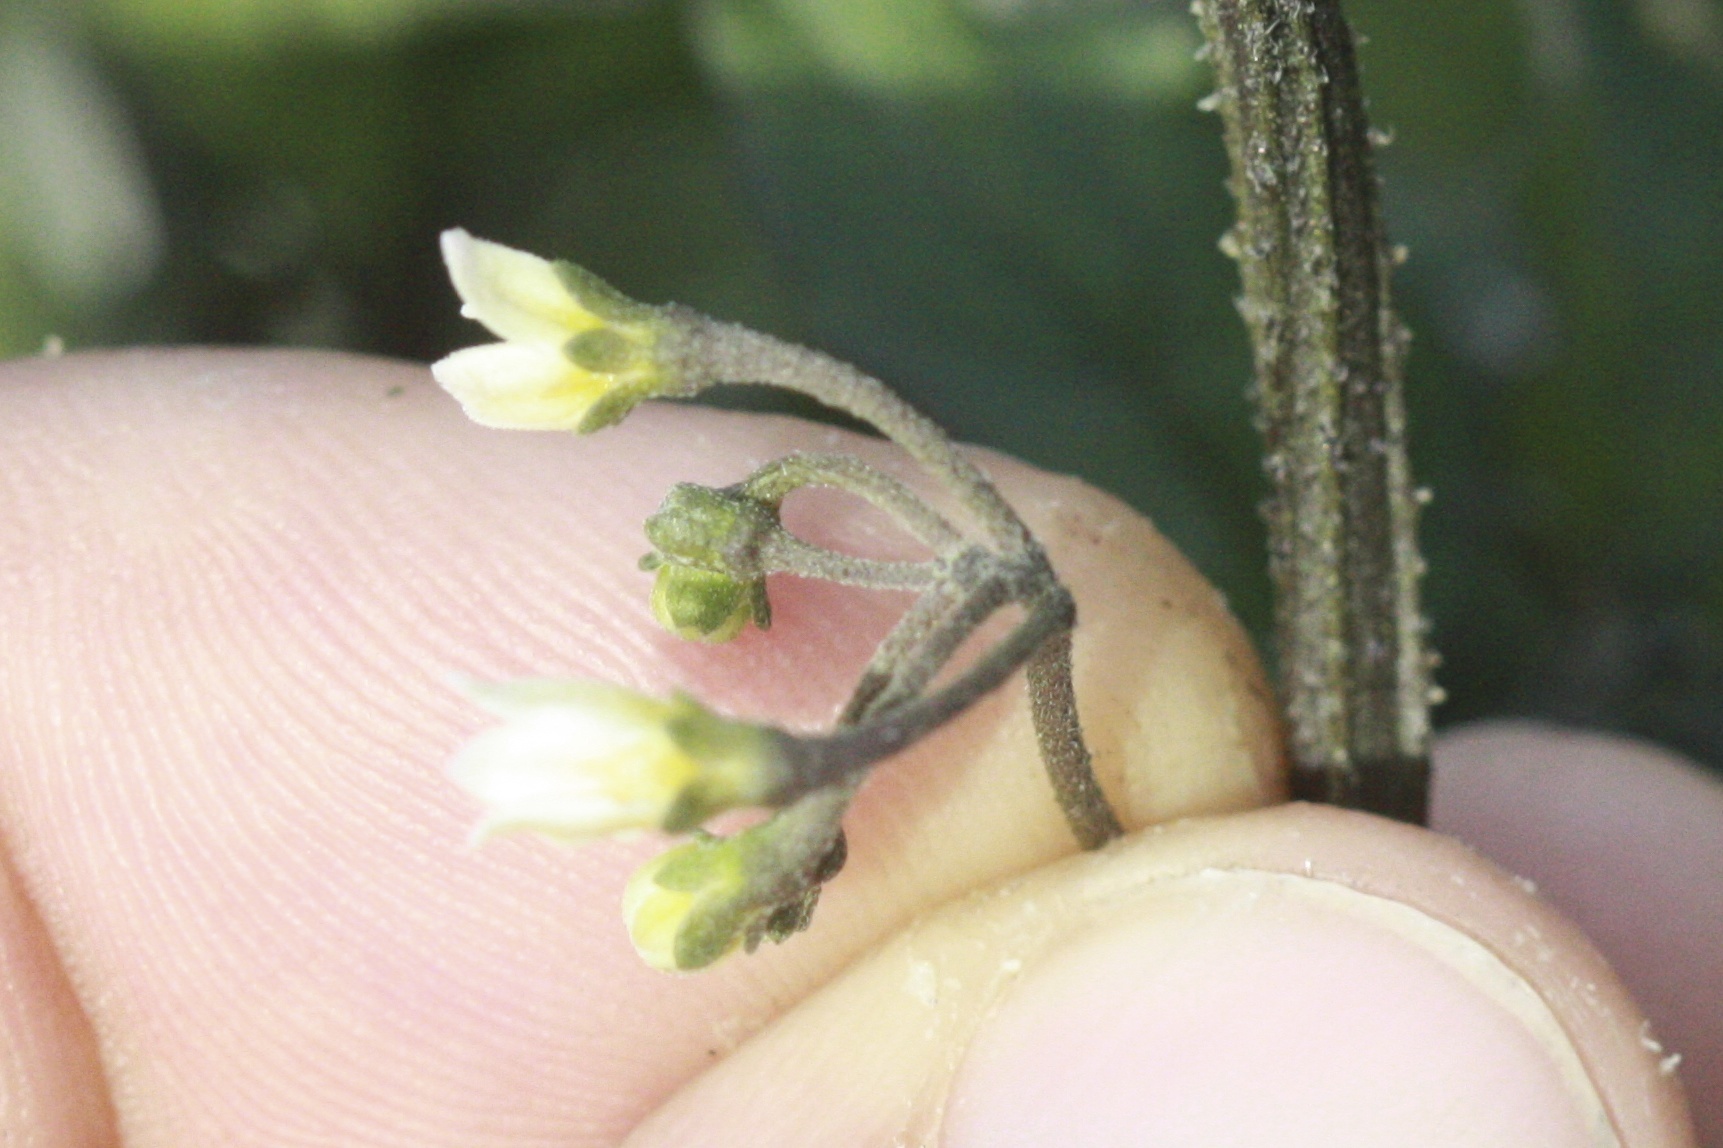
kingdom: Plantae
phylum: Tracheophyta
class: Magnoliopsida
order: Solanales
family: Solanaceae
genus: Solanum
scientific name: Solanum americanum
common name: American black nightshade
